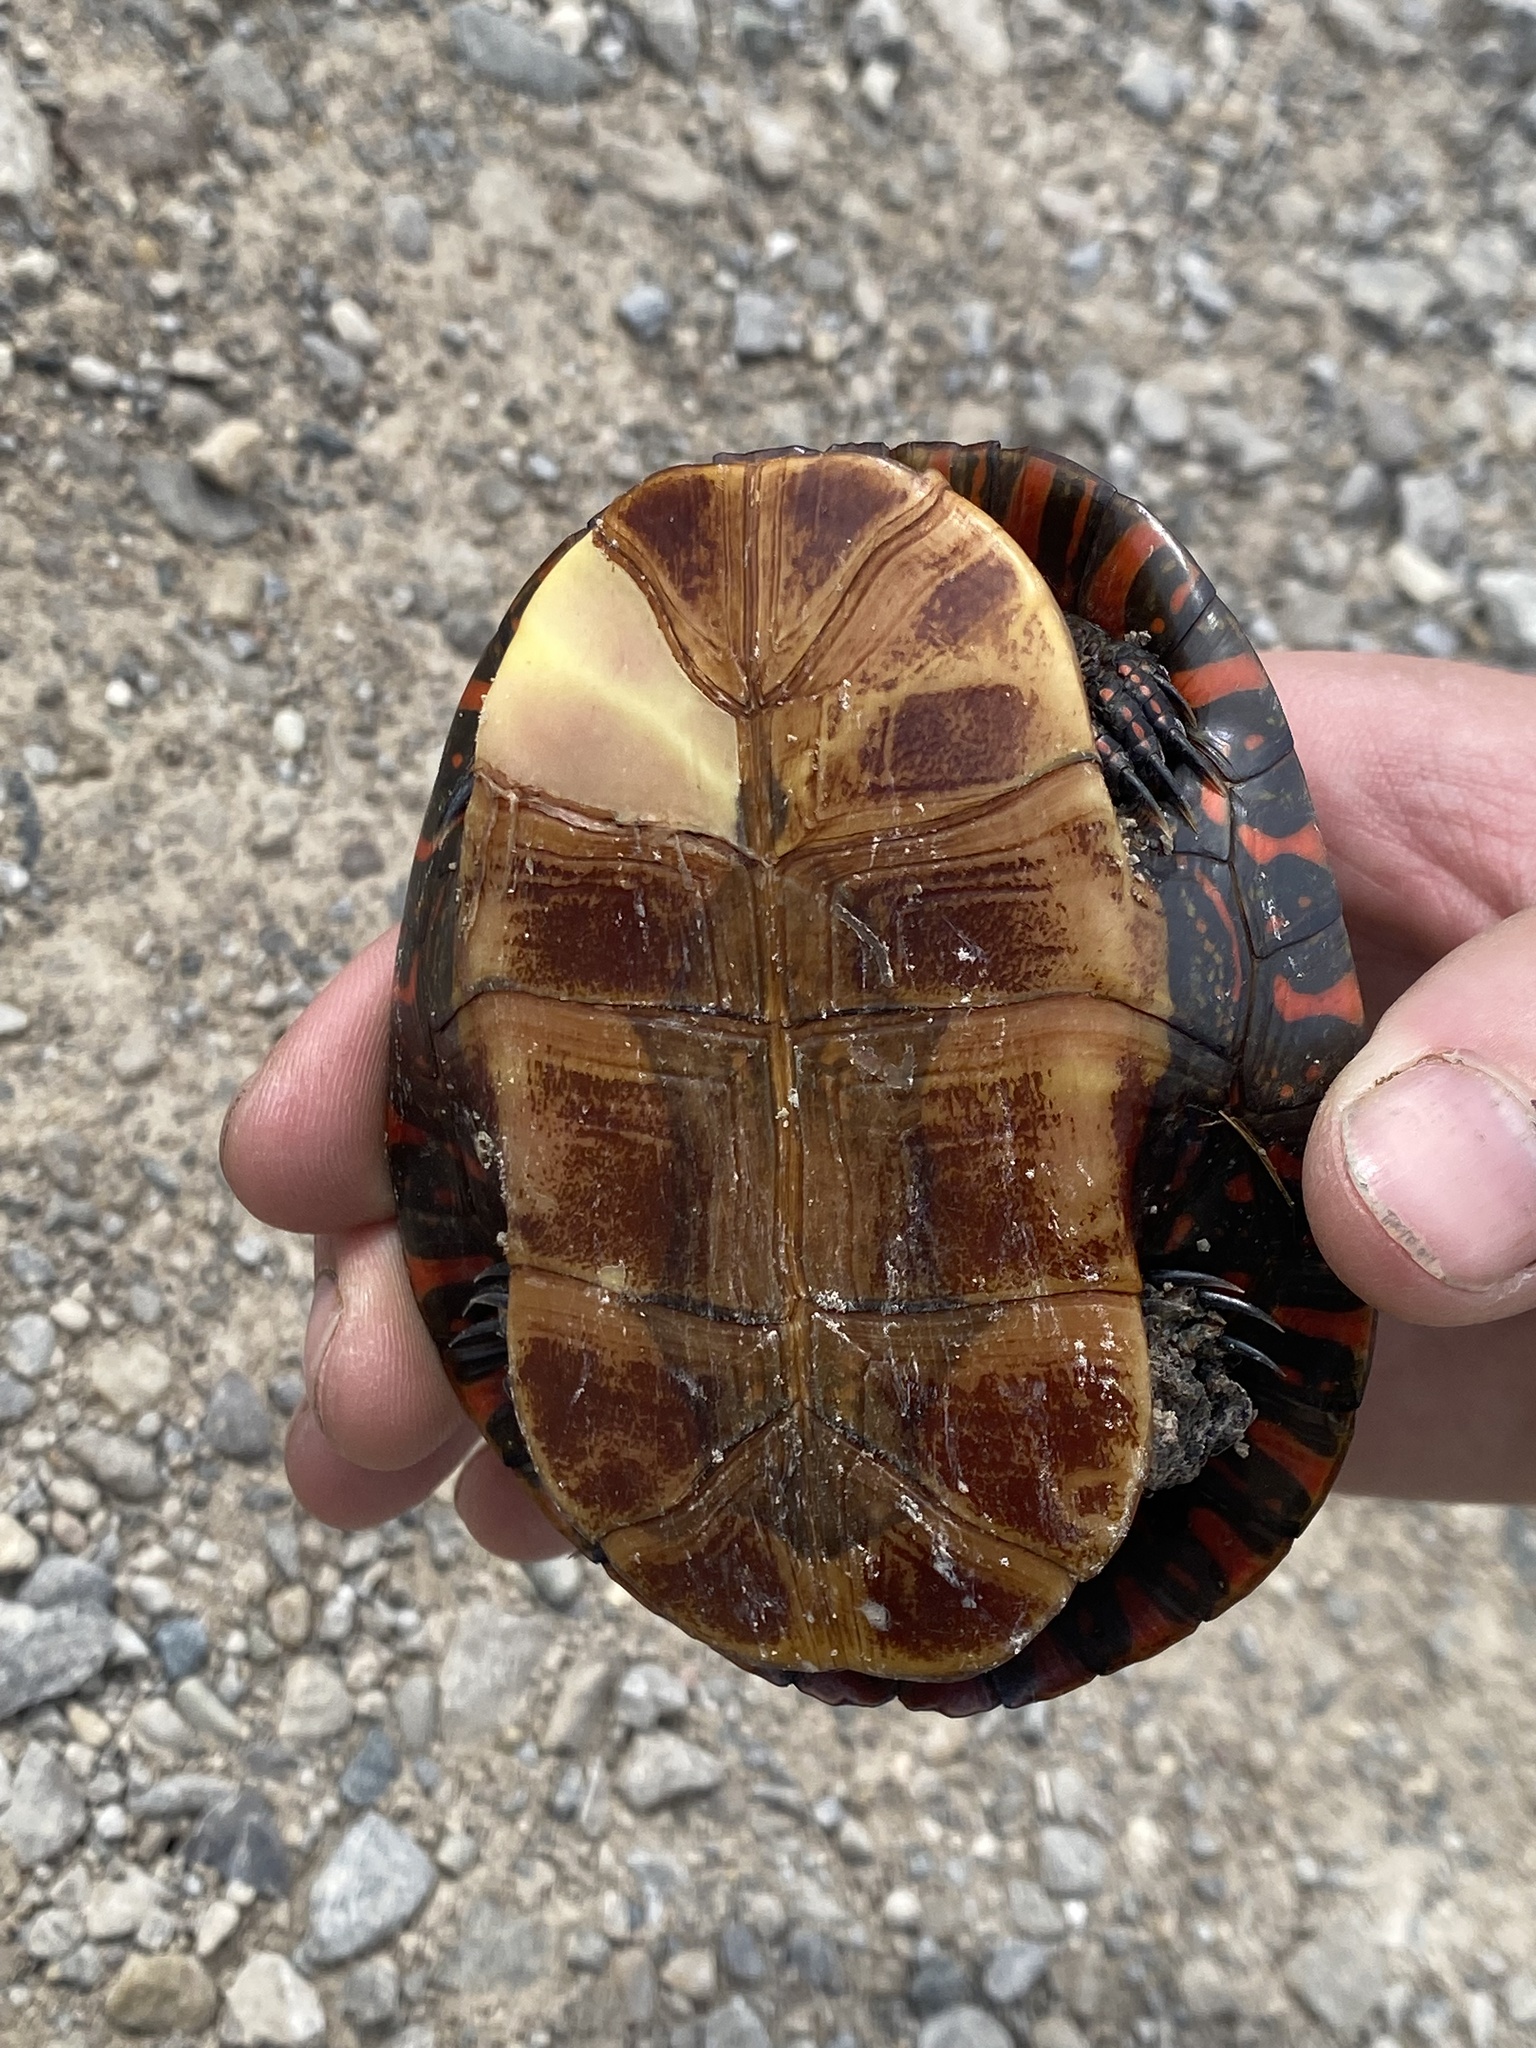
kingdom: Animalia
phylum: Chordata
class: Testudines
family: Emydidae
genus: Chrysemys
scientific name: Chrysemys picta
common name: Painted turtle
